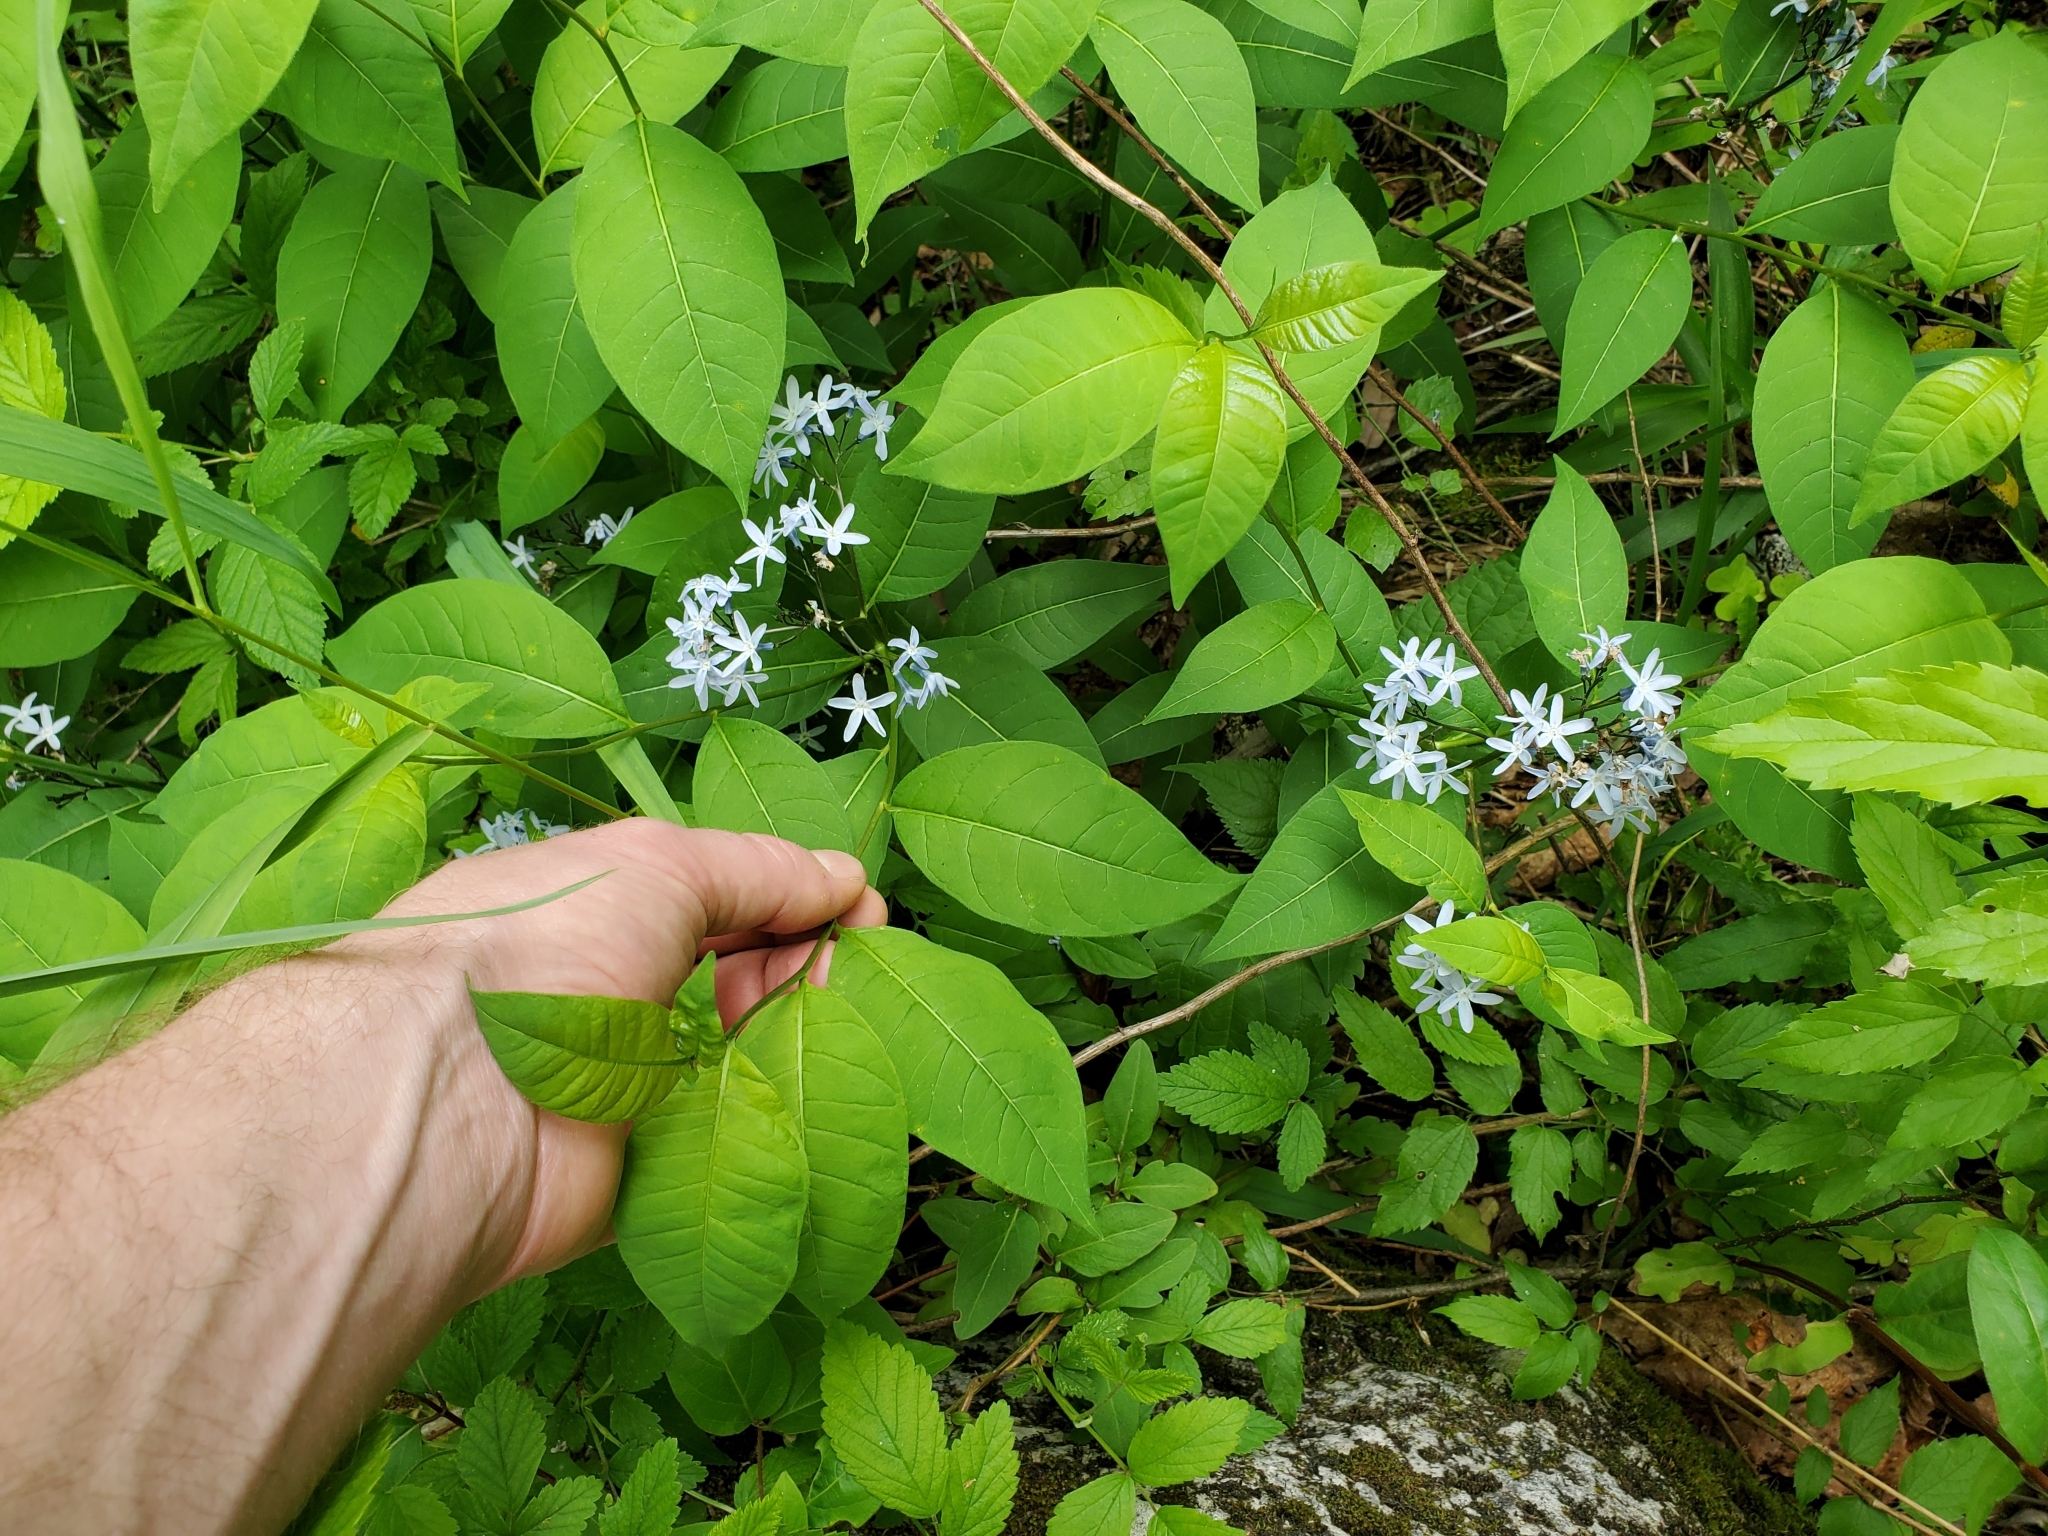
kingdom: Plantae
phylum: Tracheophyta
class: Magnoliopsida
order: Gentianales
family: Apocynaceae
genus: Amsonia
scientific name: Amsonia tabernaemontana
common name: Texas-star
